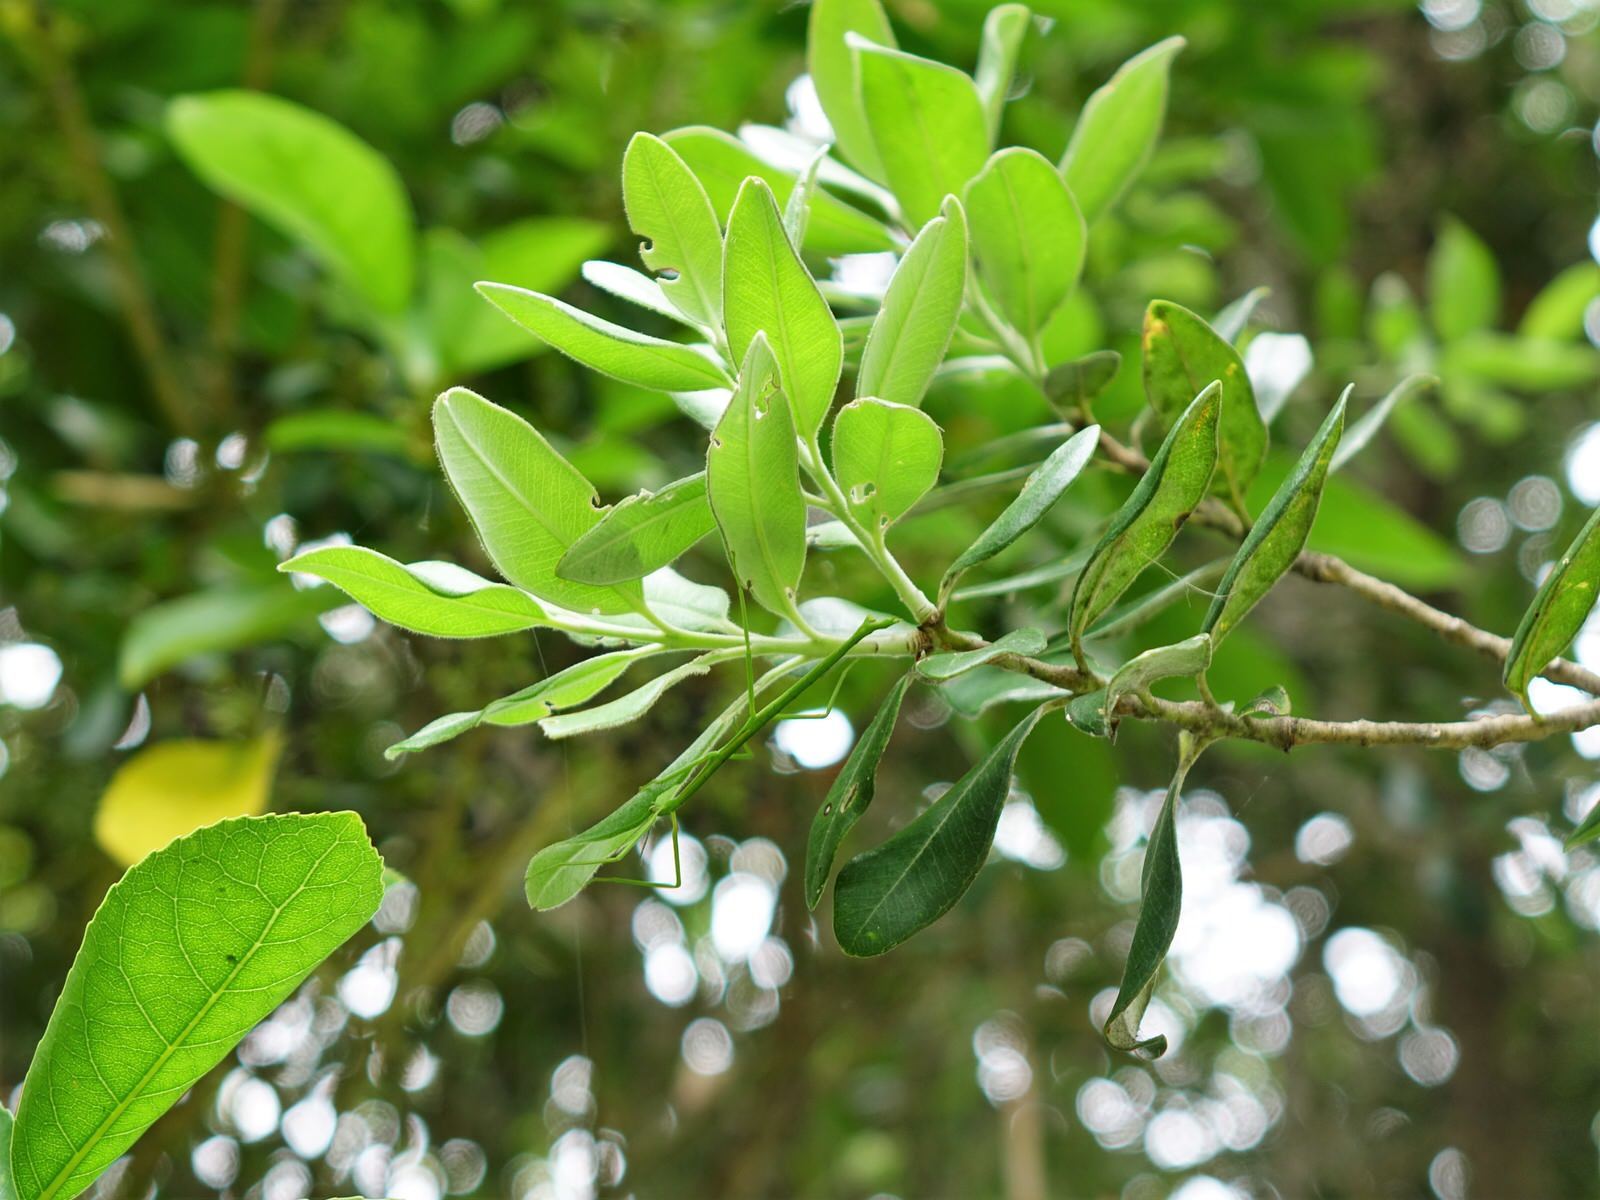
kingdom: Animalia
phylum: Arthropoda
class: Insecta
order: Phasmida
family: Phasmatidae
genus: Clitarchus
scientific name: Clitarchus hookeri
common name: Smooth stick insect
